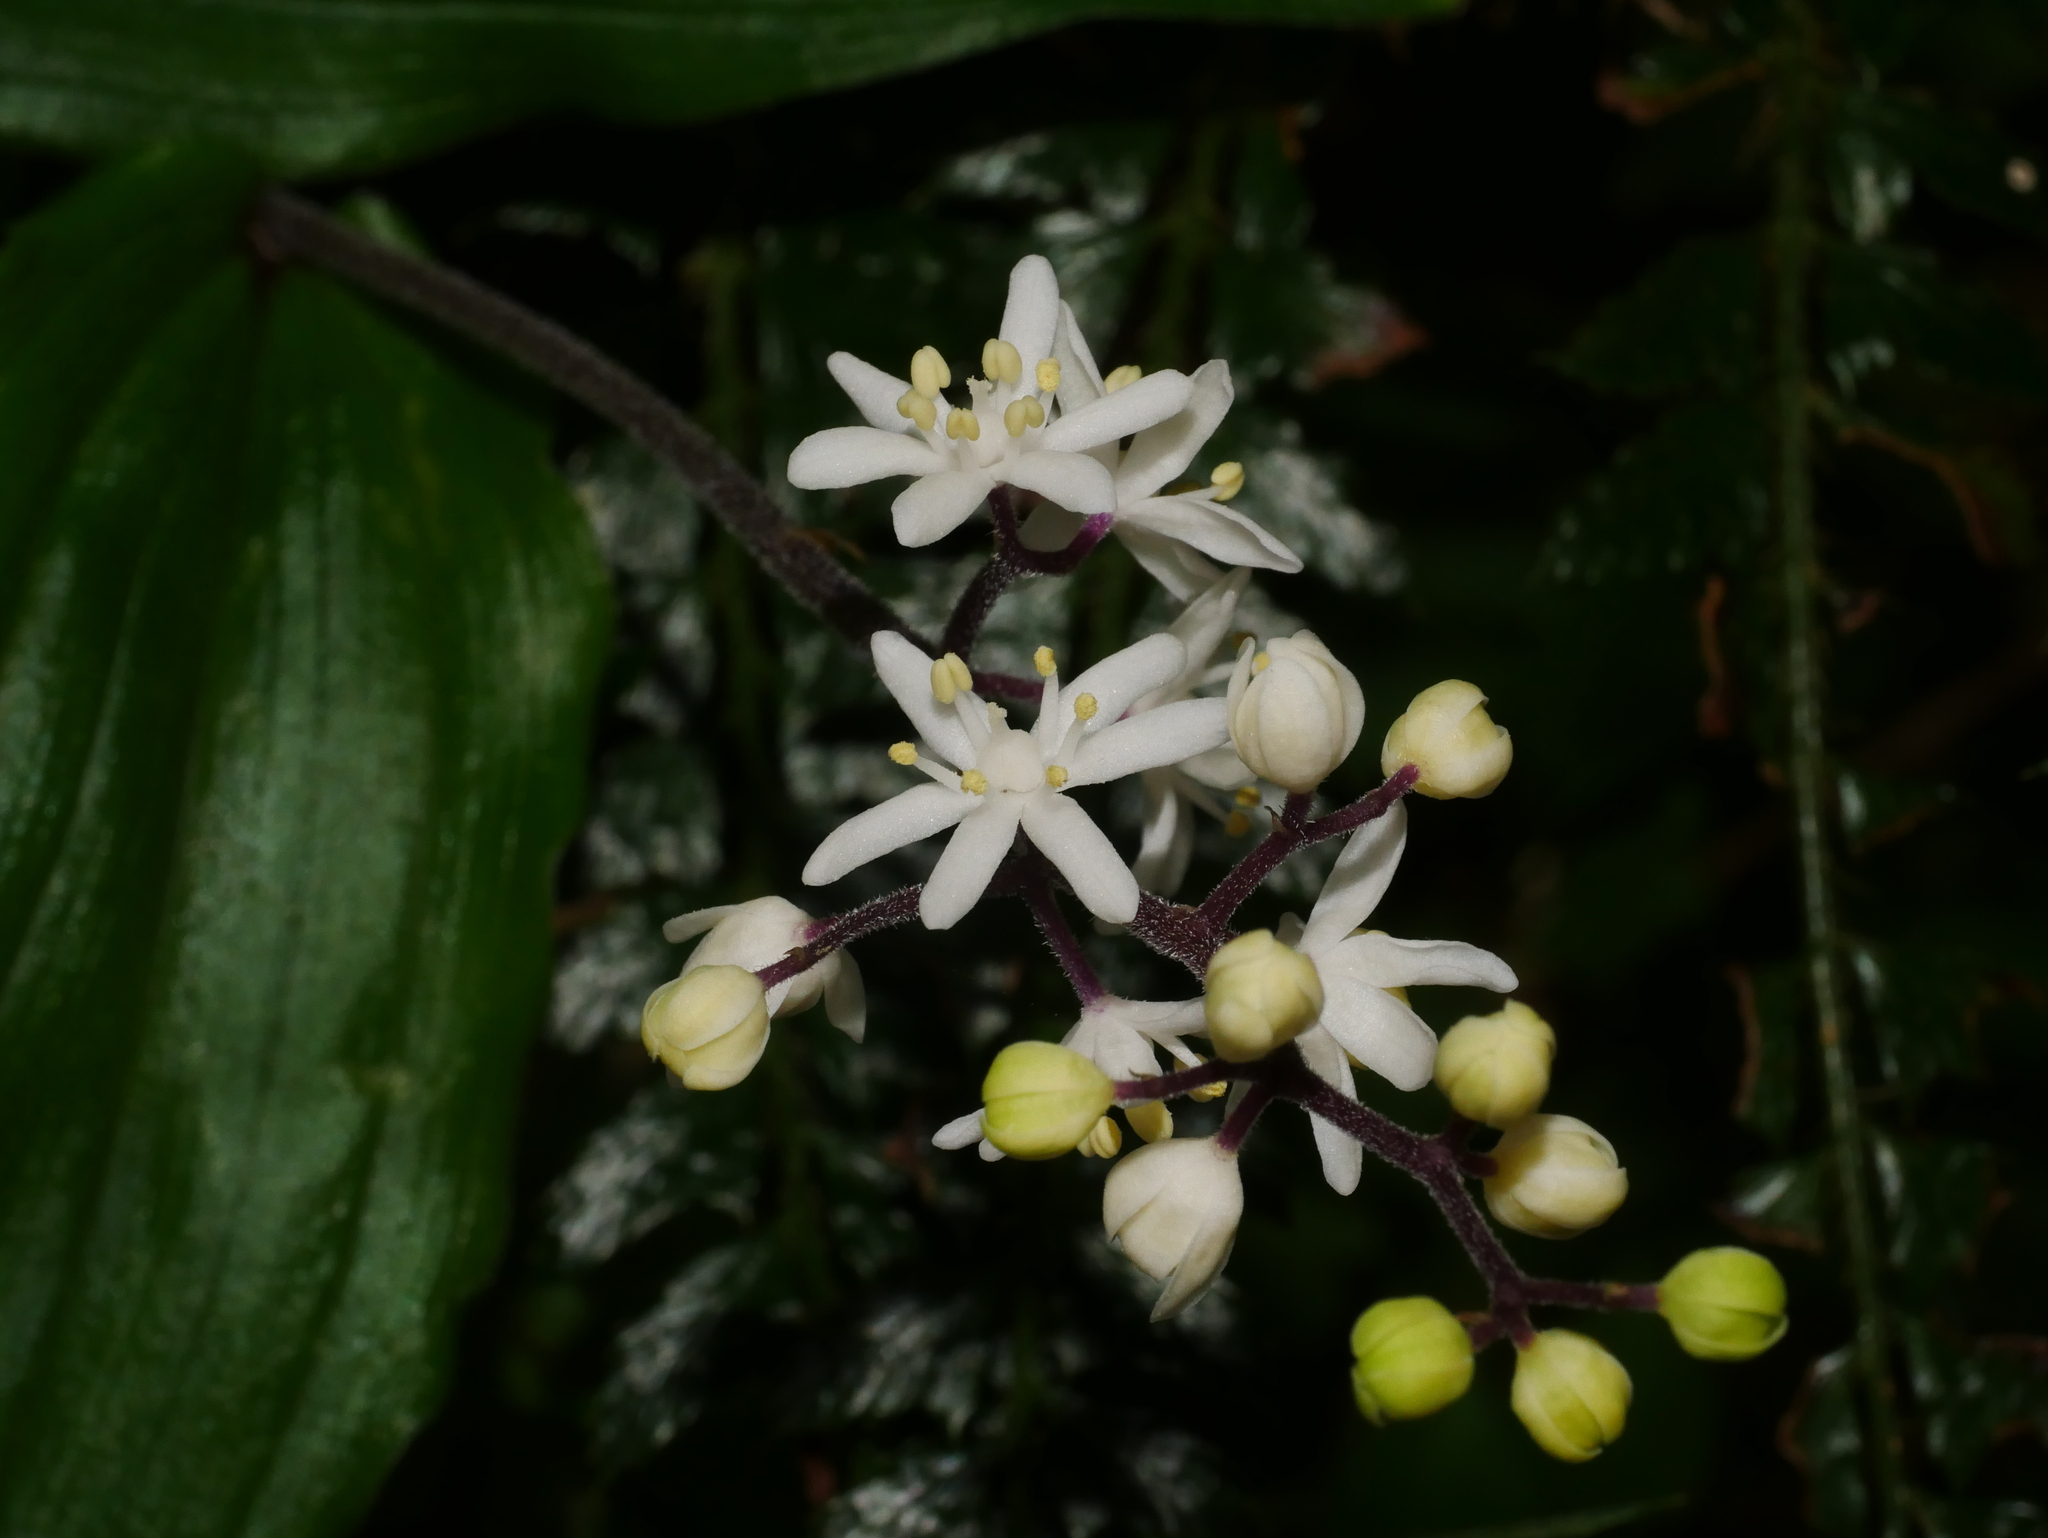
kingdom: Plantae
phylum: Tracheophyta
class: Liliopsida
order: Asparagales
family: Asparagaceae
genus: Maianthemum
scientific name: Maianthemum harae
